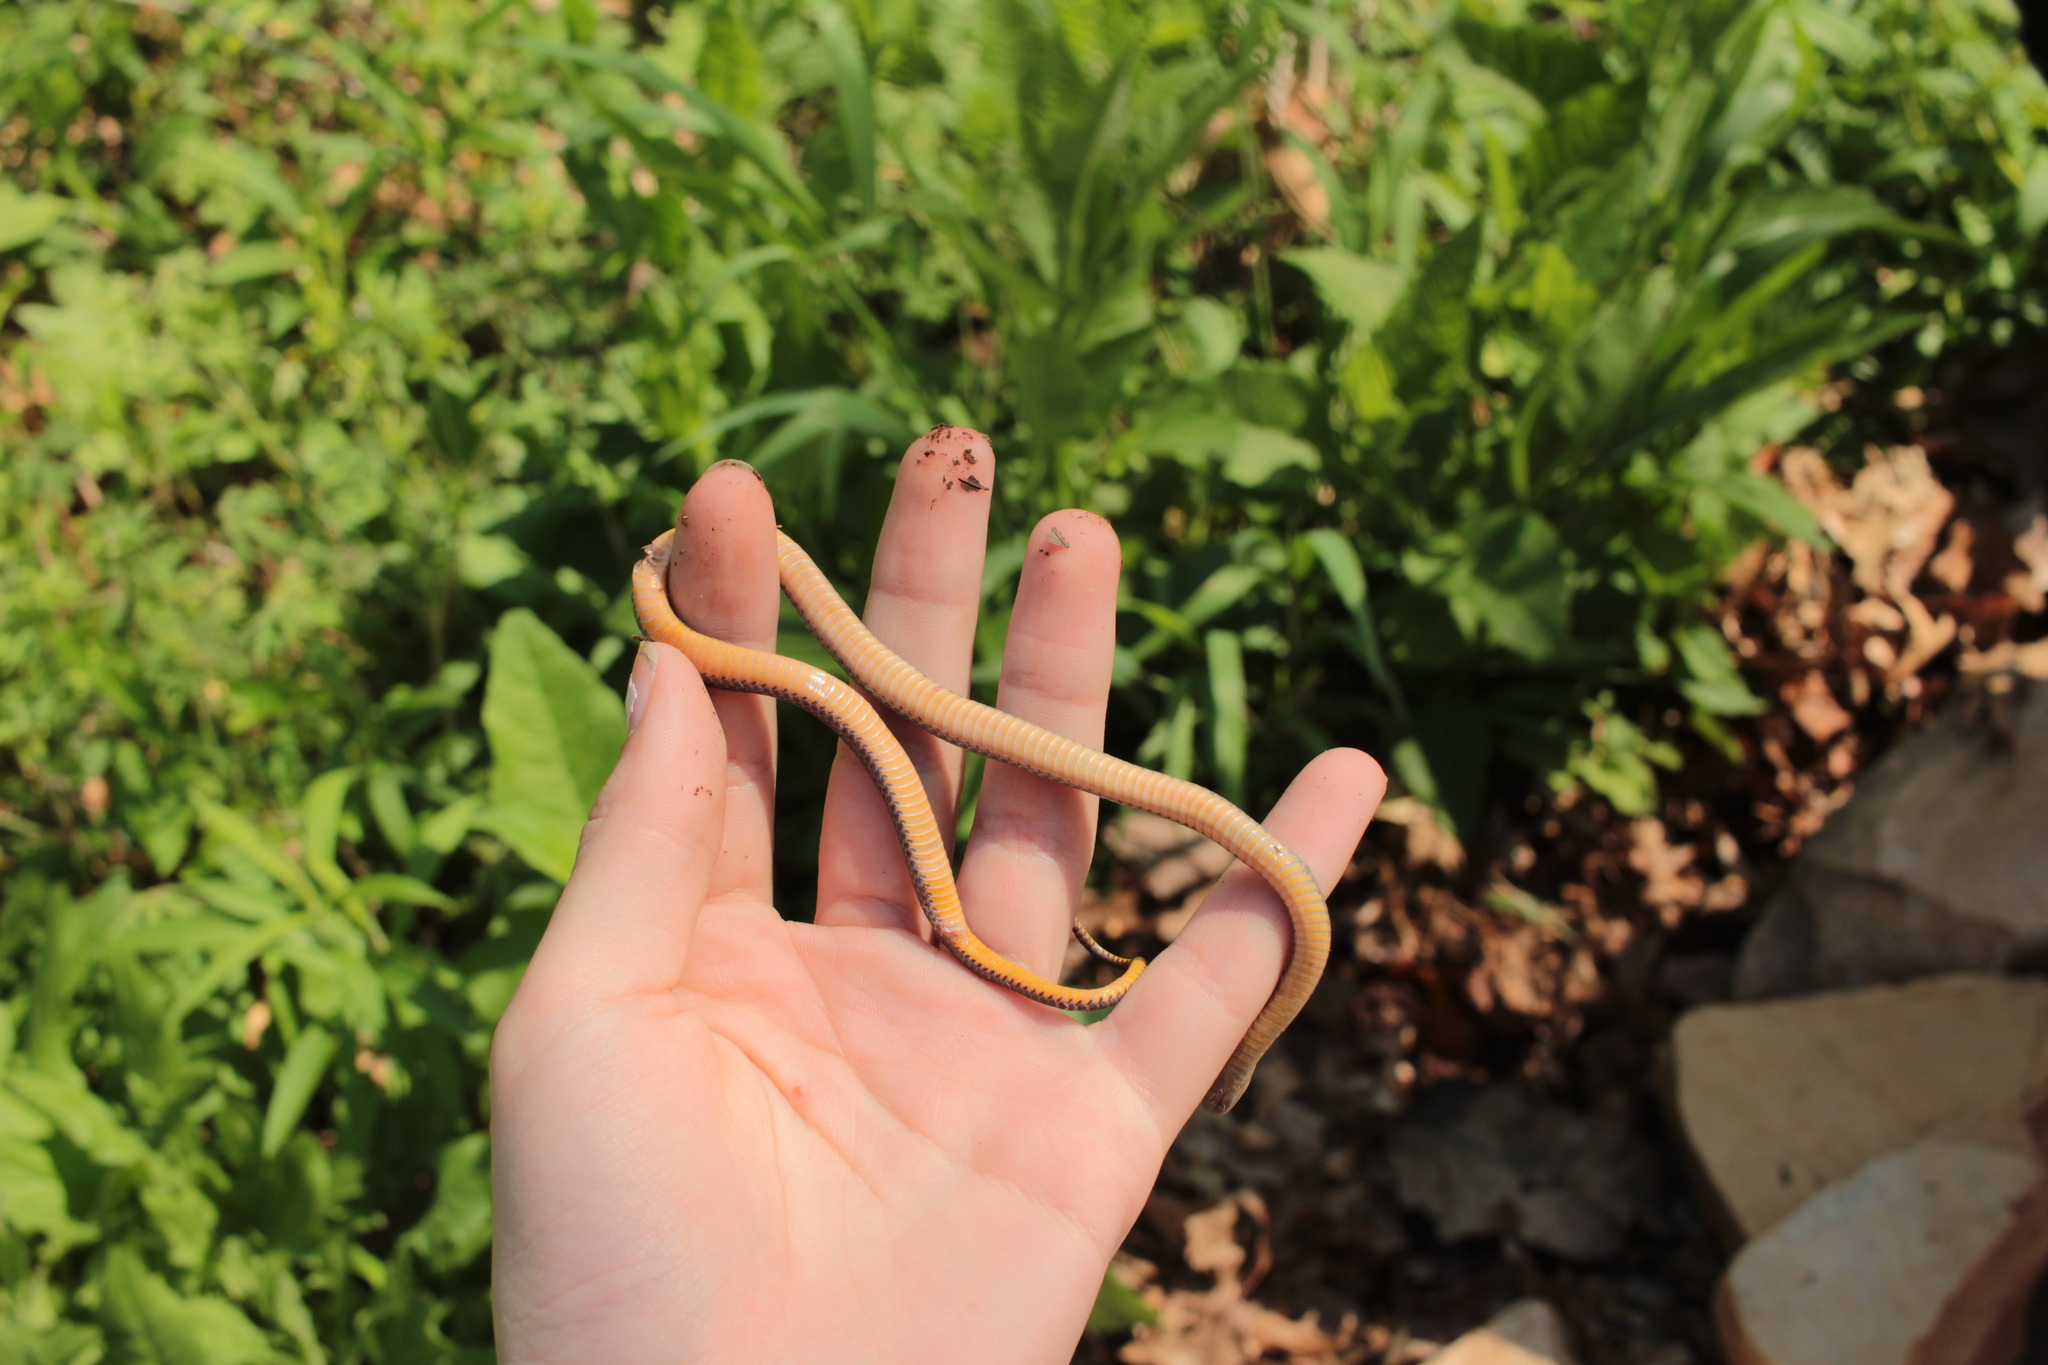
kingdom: Fungi
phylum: Ascomycota
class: Eurotiomycetes
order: Onygenales
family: Onygenaceae
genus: Ophidiomyces
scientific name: Ophidiomyces ophidiicola
